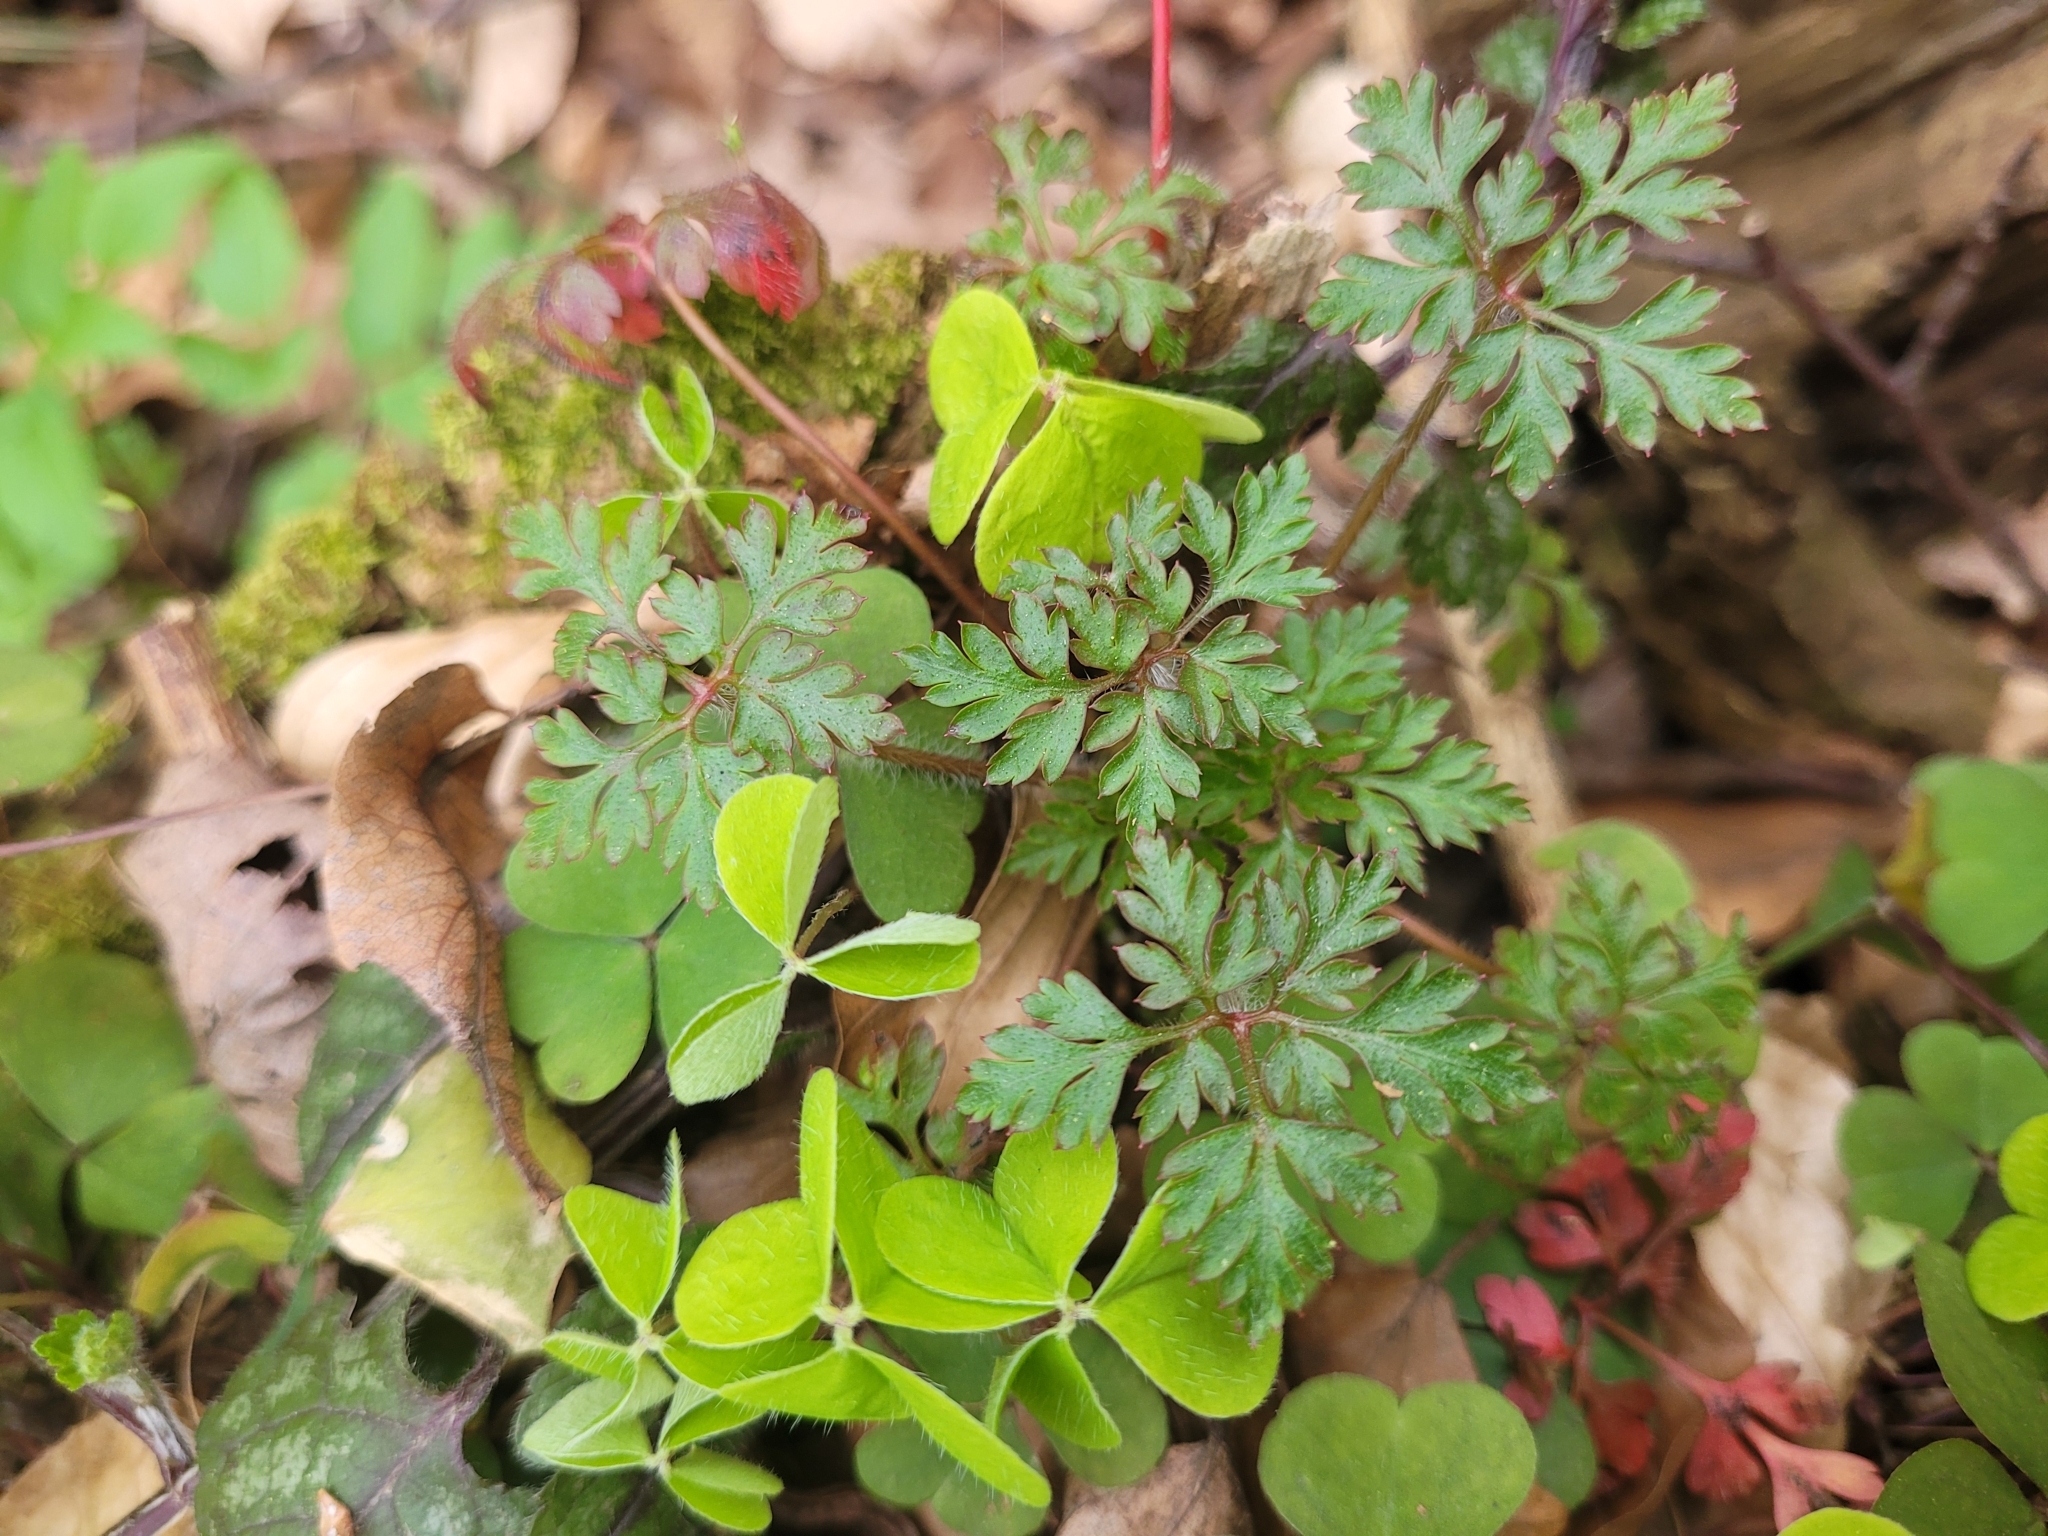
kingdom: Plantae
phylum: Tracheophyta
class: Magnoliopsida
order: Geraniales
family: Geraniaceae
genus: Geranium
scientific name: Geranium robertianum
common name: Herb-robert
